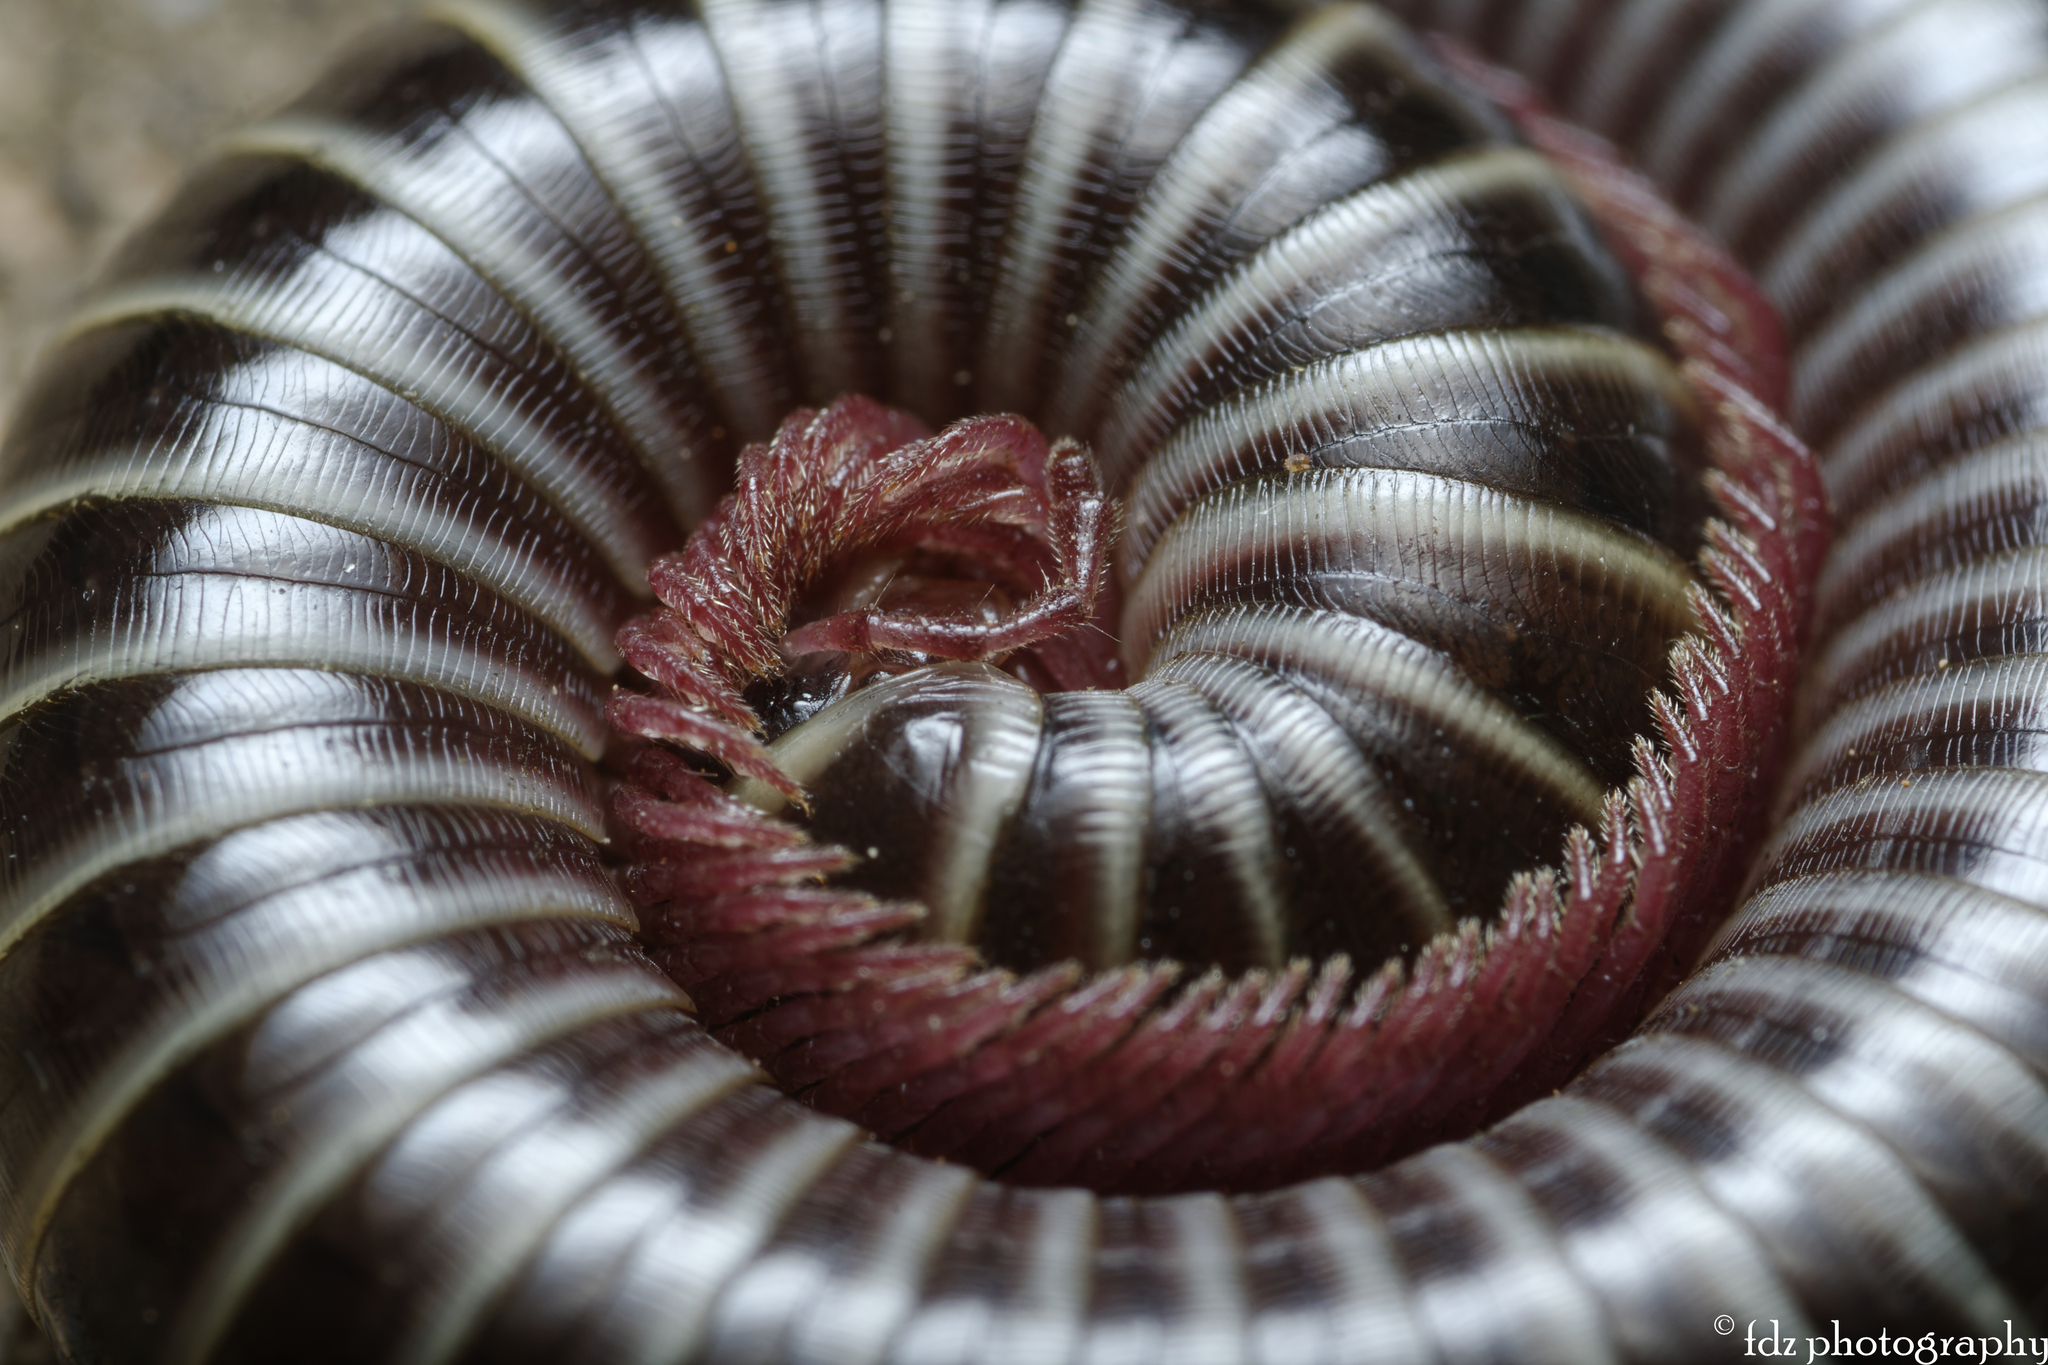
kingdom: Animalia
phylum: Arthropoda
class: Diplopoda
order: Julida
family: Julidae
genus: Ommatoiulus
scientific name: Ommatoiulus diplurus
